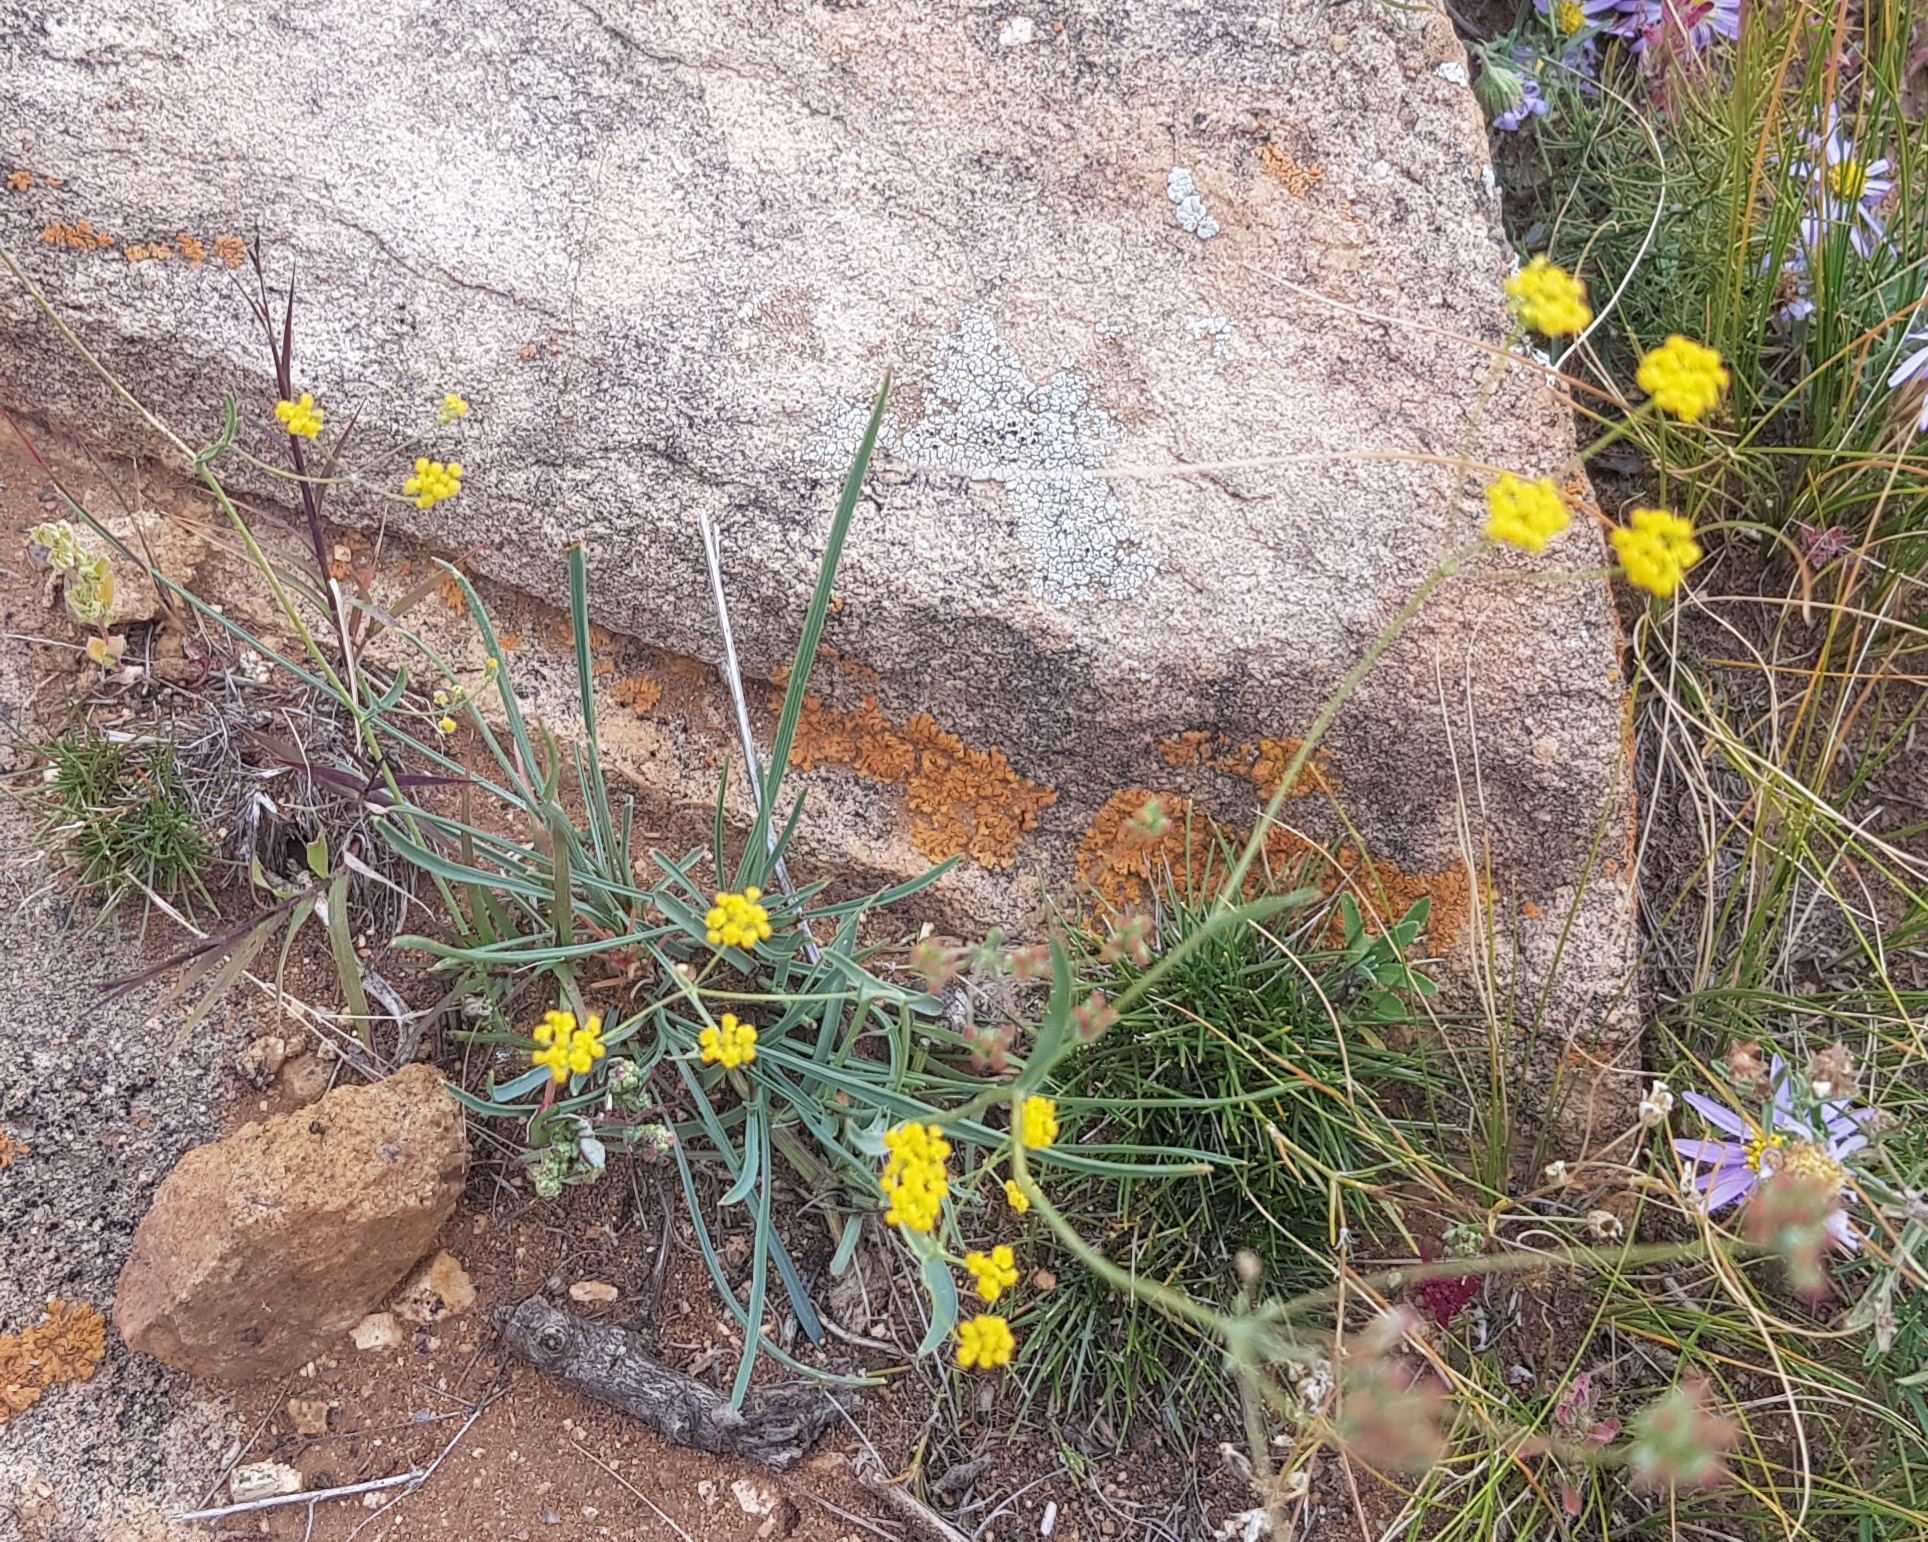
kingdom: Plantae
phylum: Tracheophyta
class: Magnoliopsida
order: Apiales
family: Apiaceae
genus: Bupleurum
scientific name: Bupleurum bicaule
